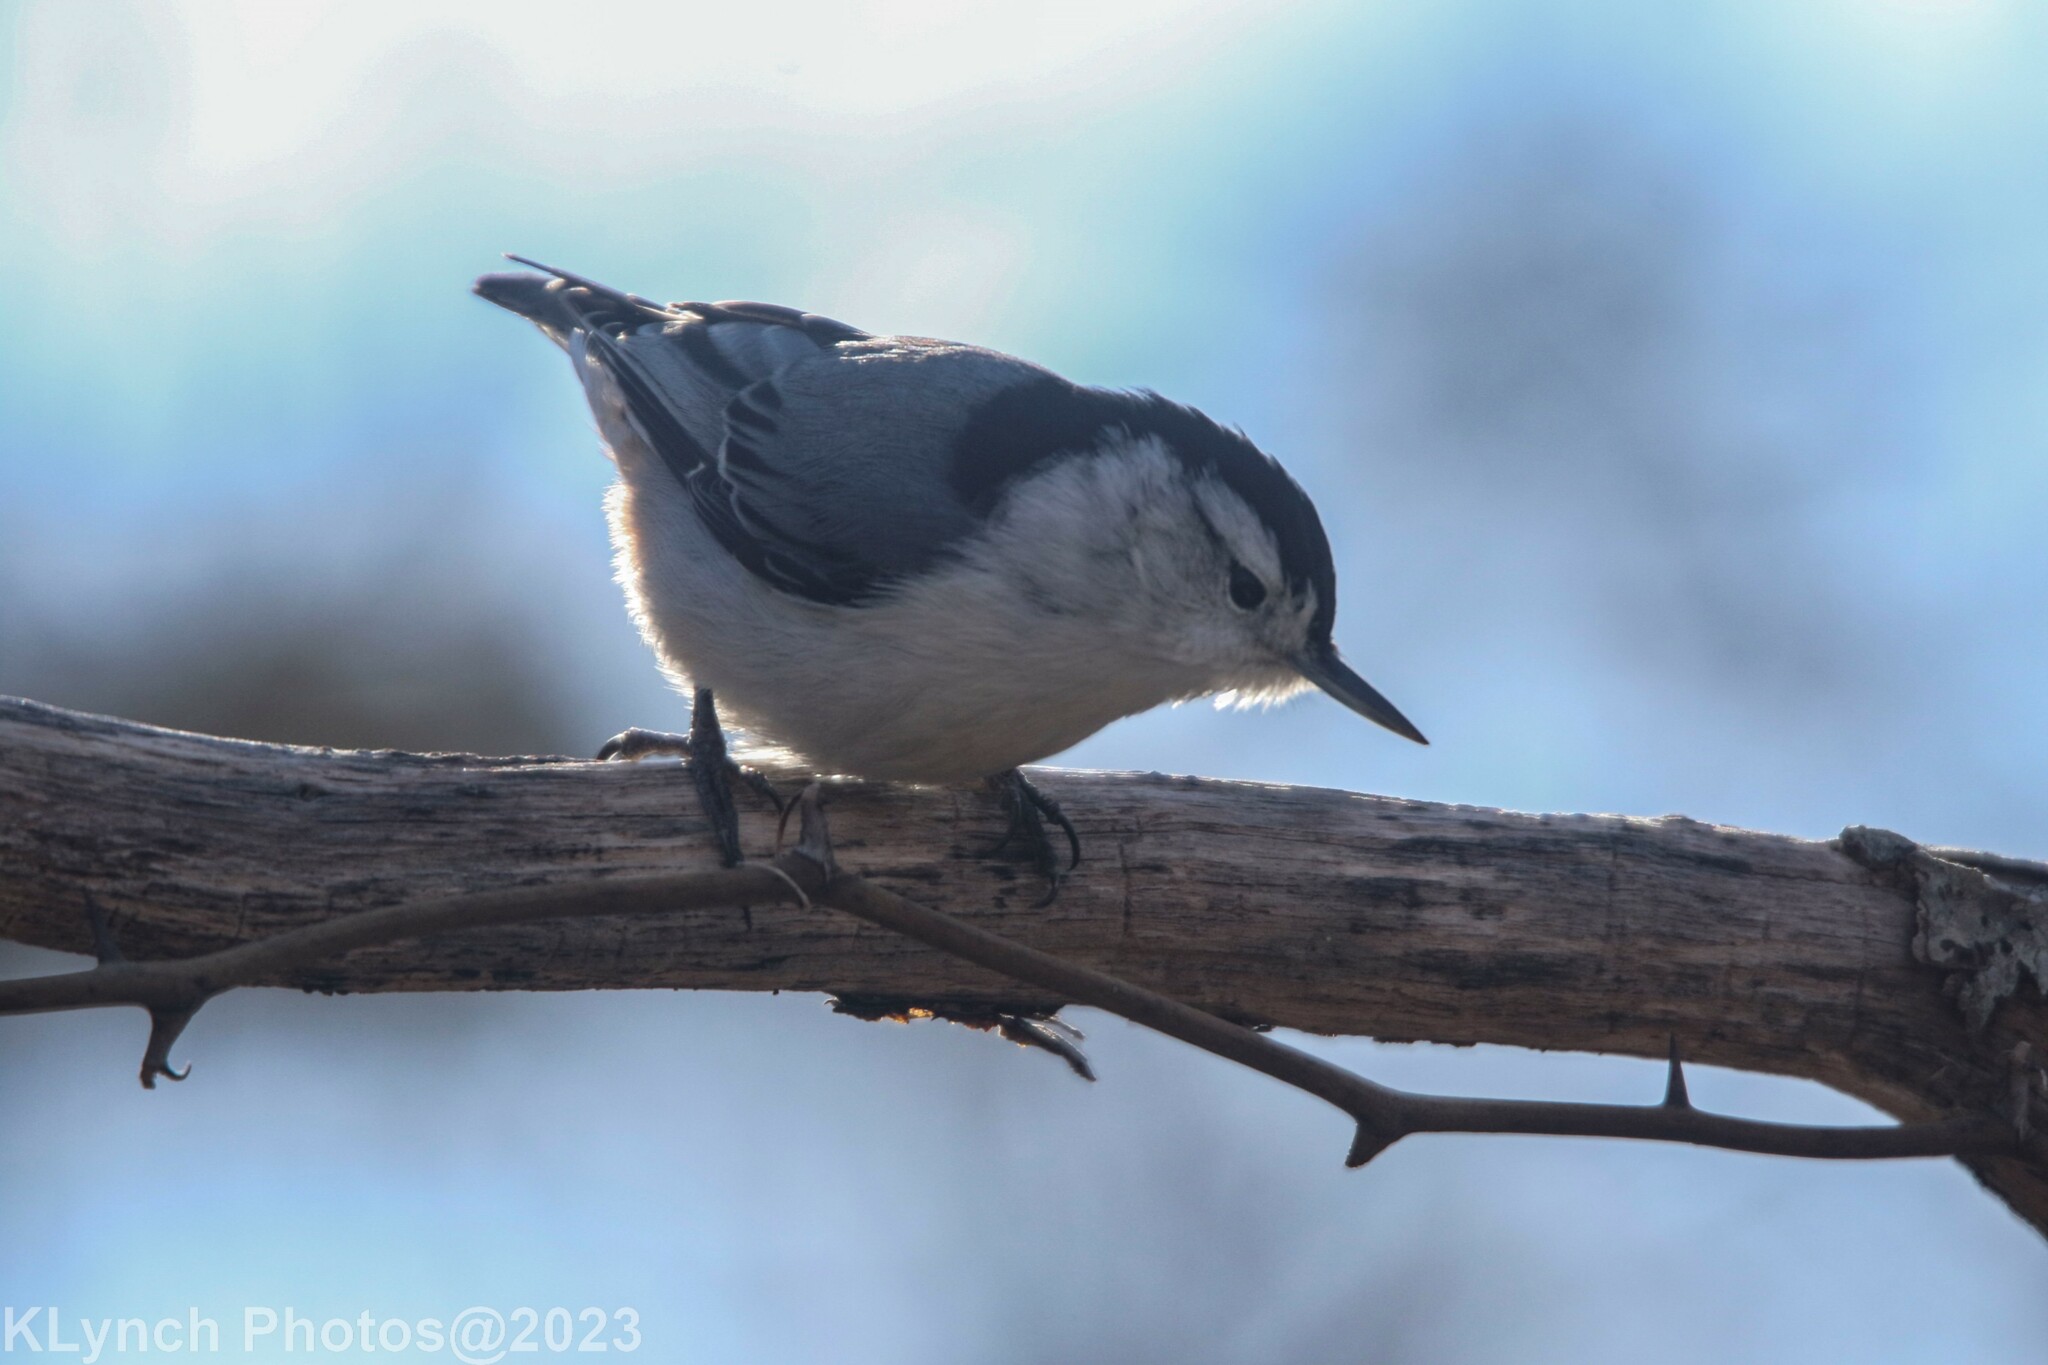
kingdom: Animalia
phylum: Chordata
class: Aves
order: Passeriformes
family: Sittidae
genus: Sitta
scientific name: Sitta carolinensis
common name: White-breasted nuthatch
